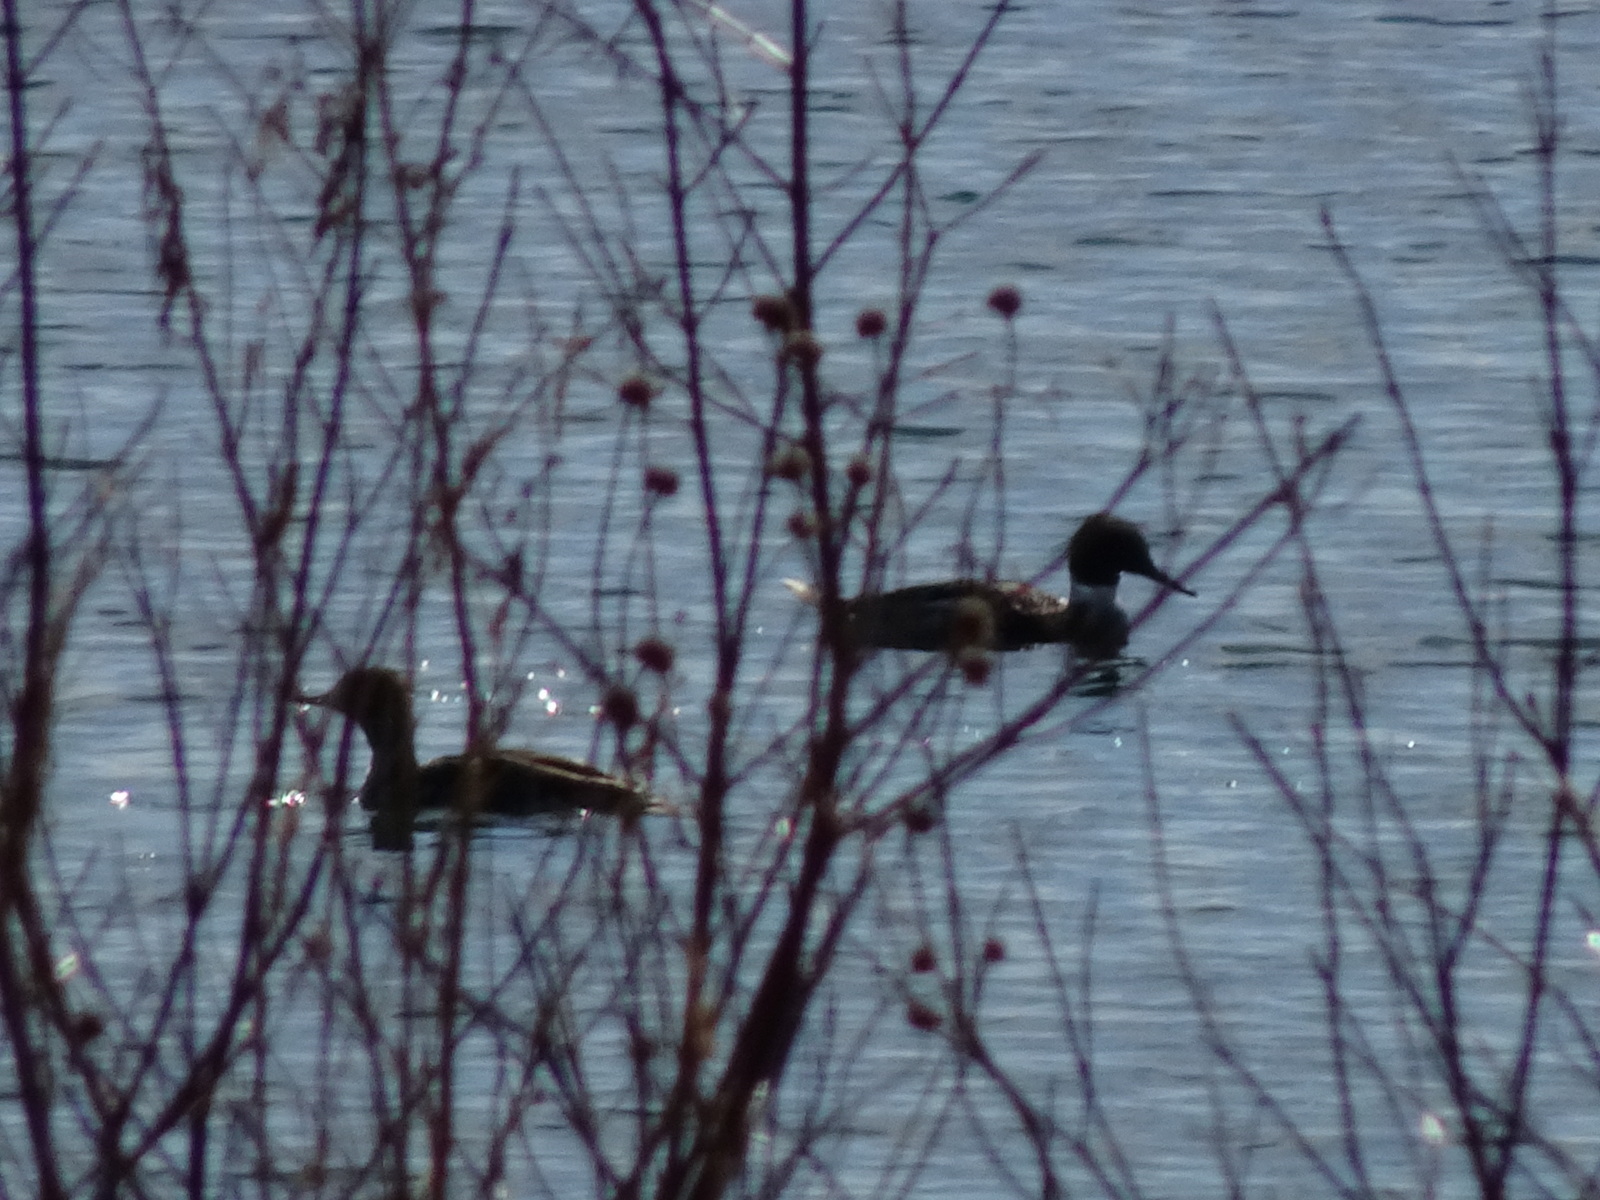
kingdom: Animalia
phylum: Chordata
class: Aves
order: Anseriformes
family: Anatidae
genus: Mergus
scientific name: Mergus serrator
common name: Red-breasted merganser
